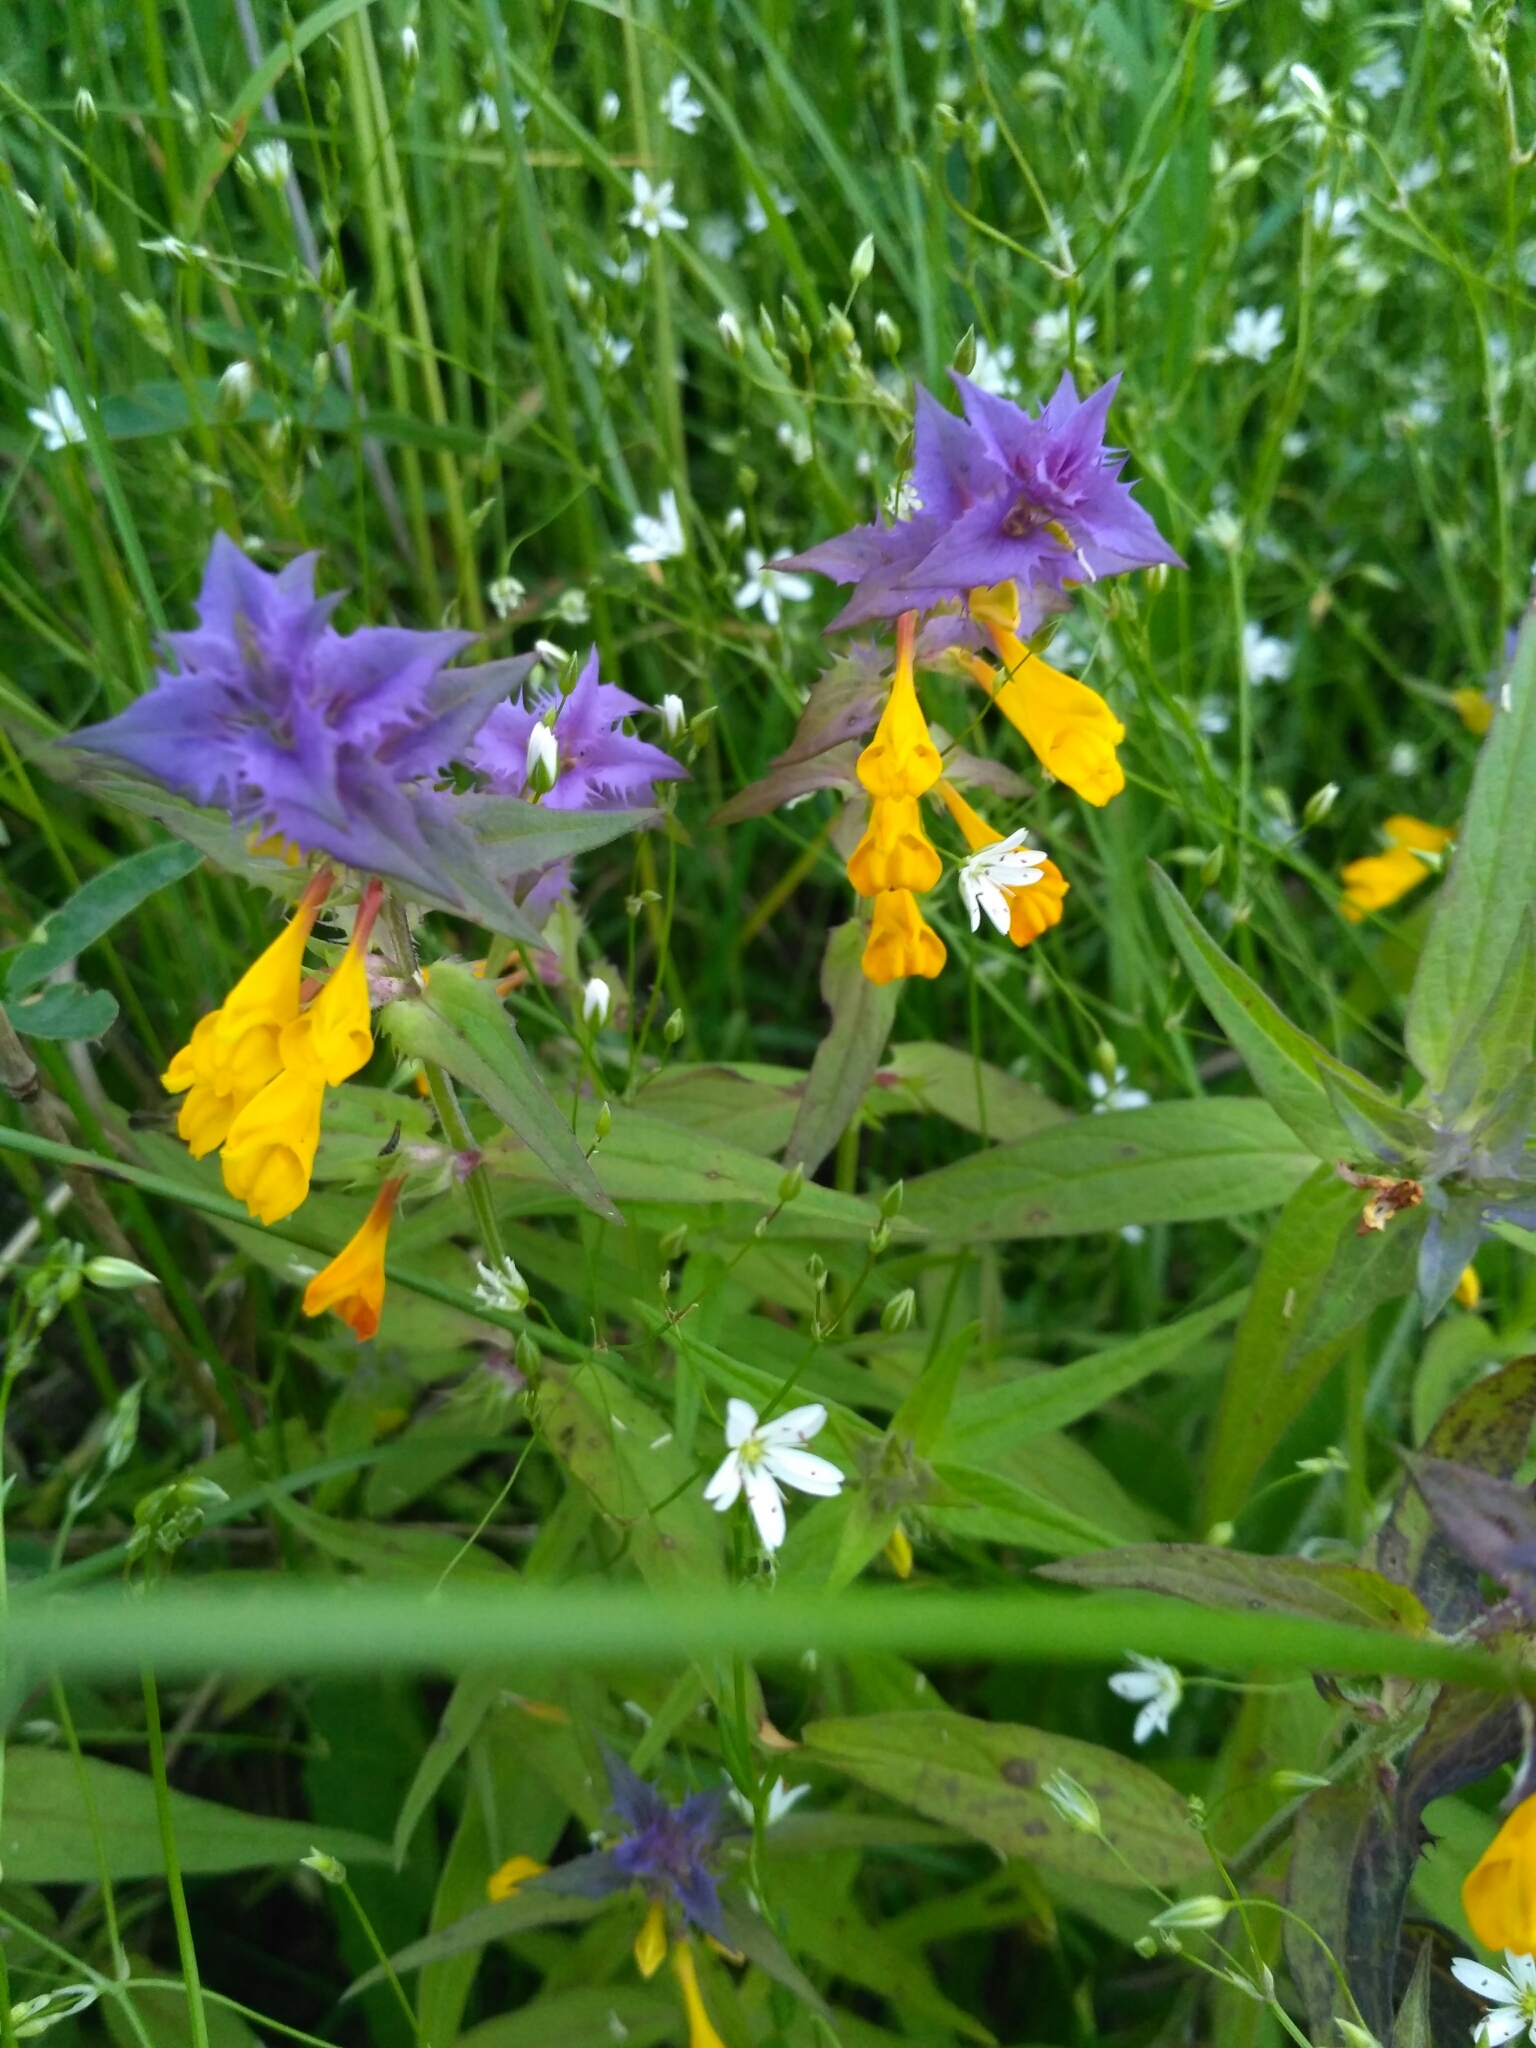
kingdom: Plantae
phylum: Tracheophyta
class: Magnoliopsida
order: Lamiales
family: Orobanchaceae
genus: Melampyrum
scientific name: Melampyrum nemorosum
